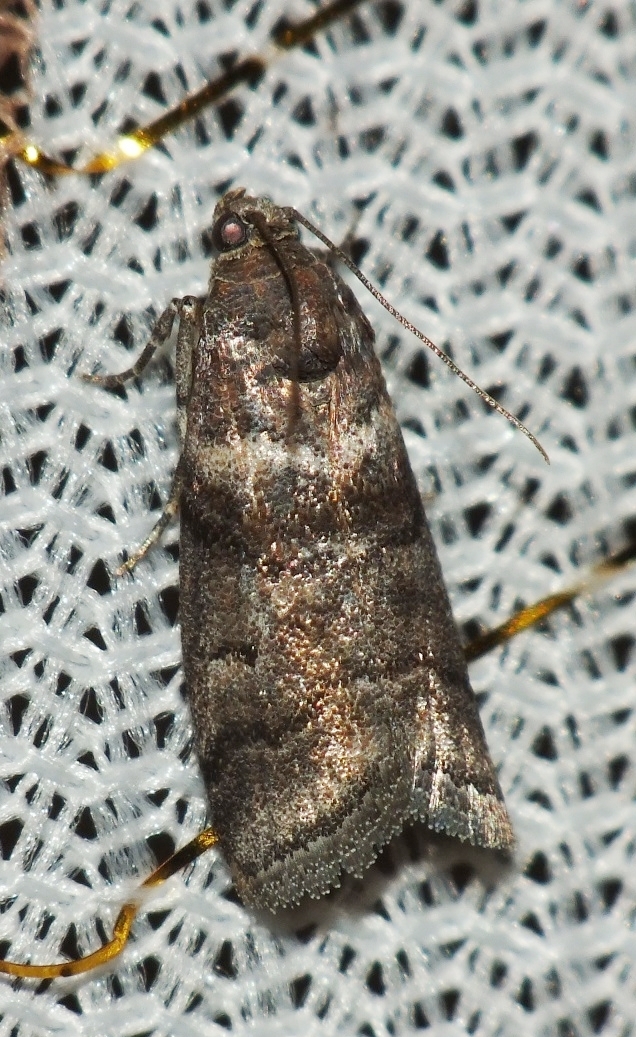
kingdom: Animalia
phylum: Arthropoda
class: Insecta
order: Lepidoptera
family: Pyralidae
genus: Acrobasis
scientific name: Acrobasis obtusella
